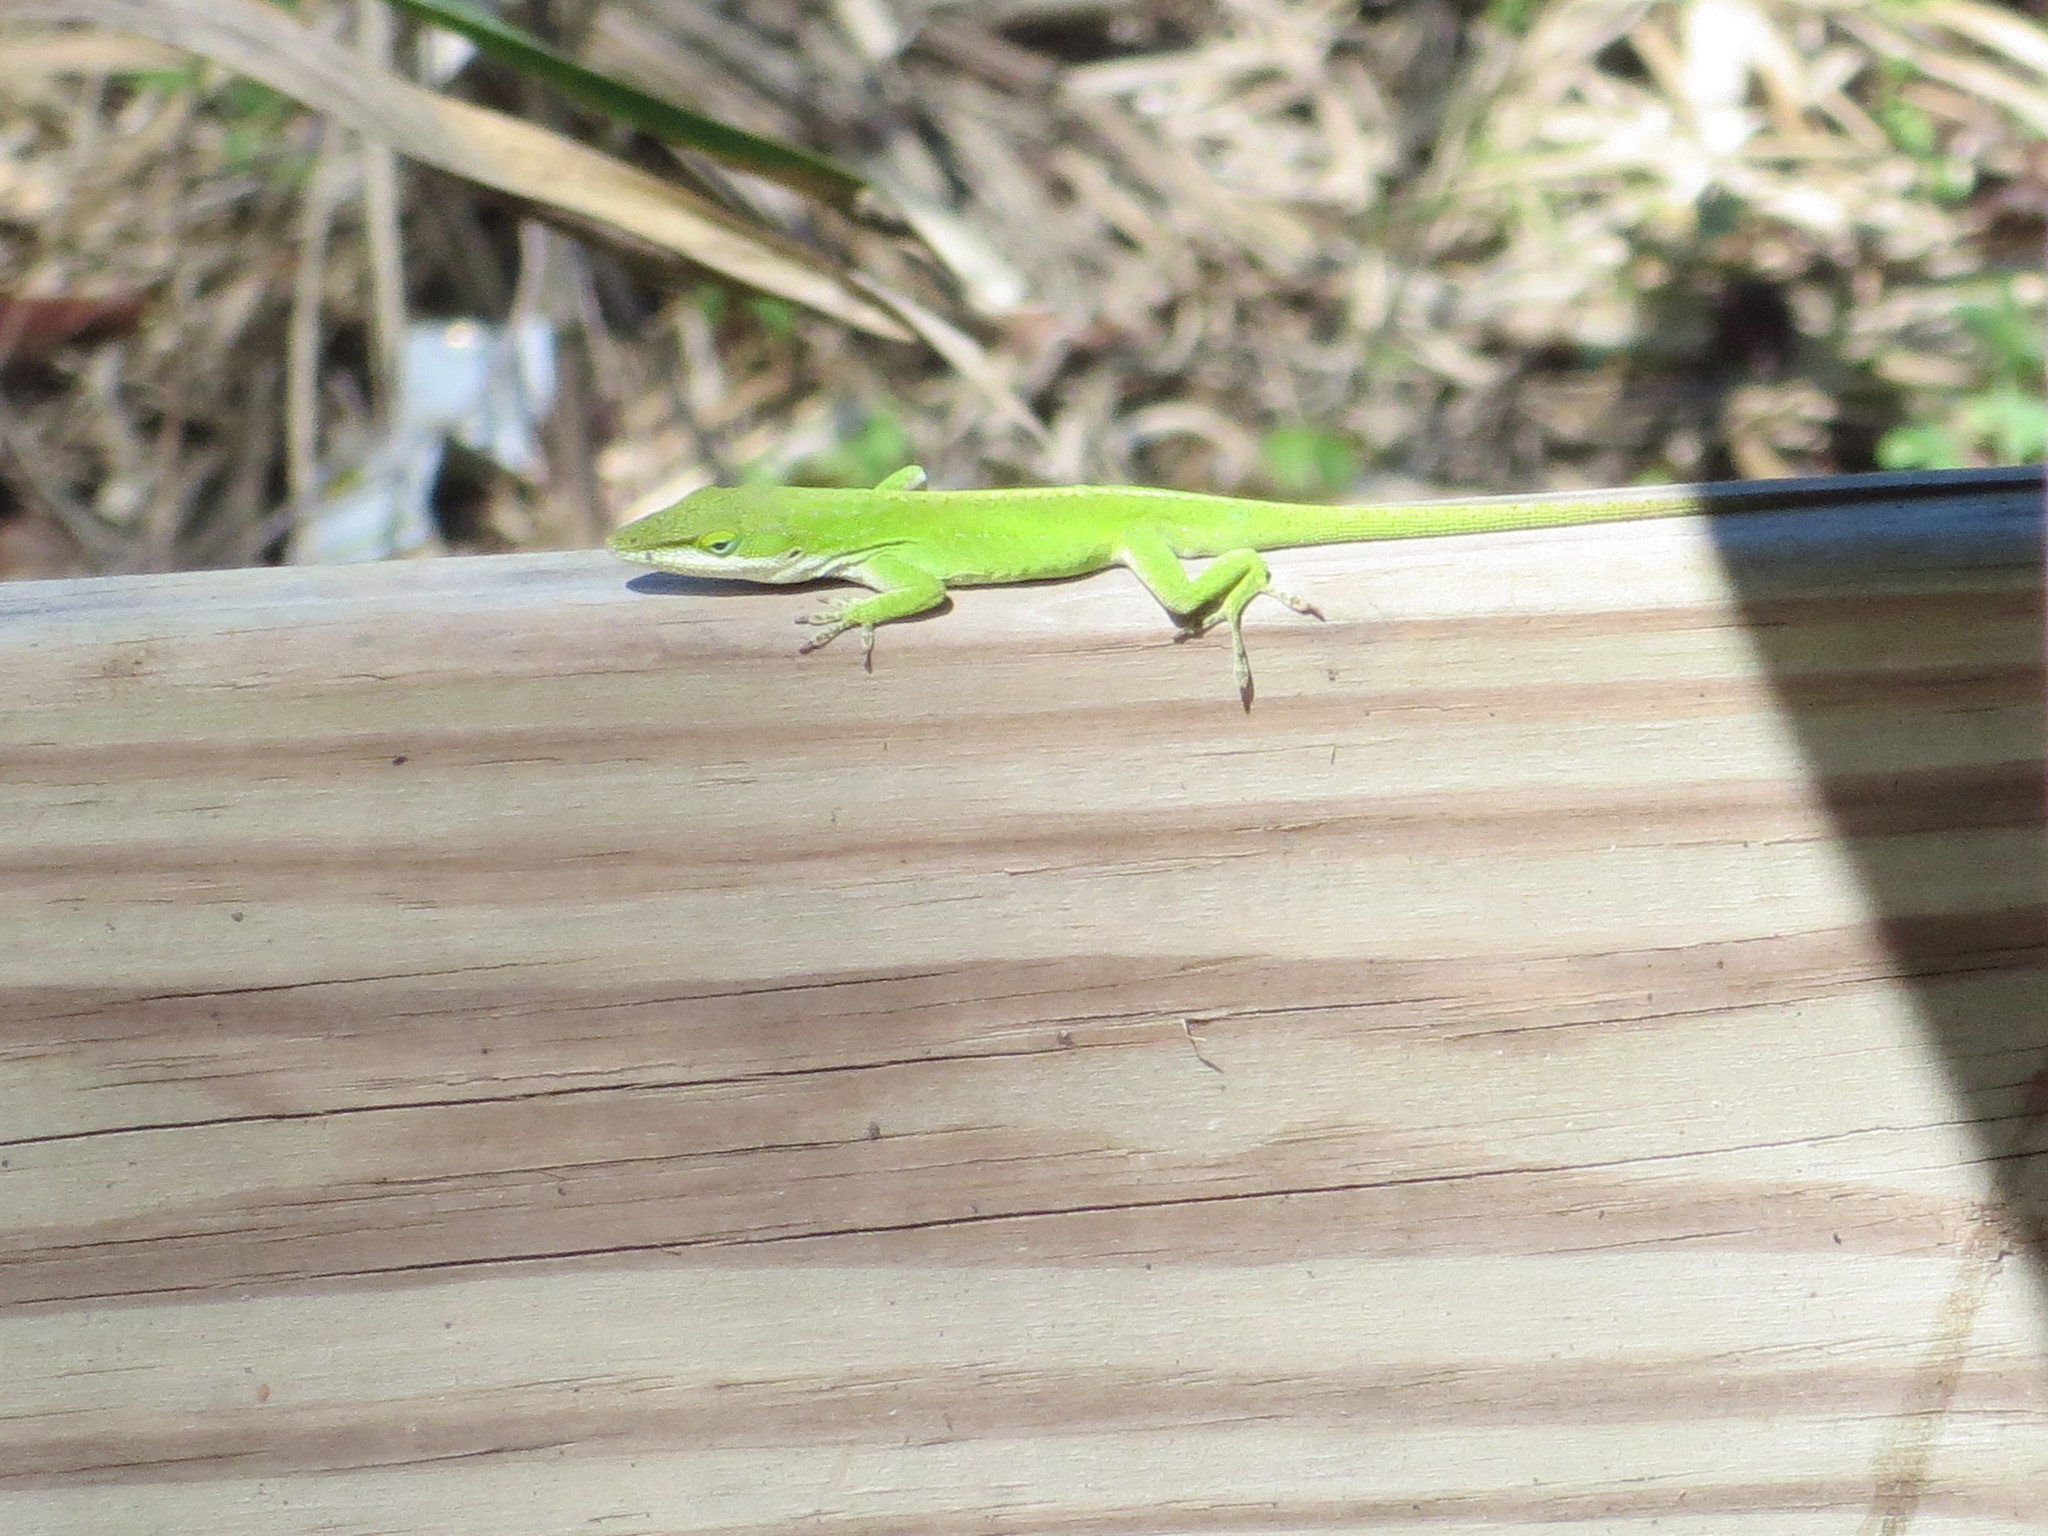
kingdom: Animalia
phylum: Chordata
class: Squamata
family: Dactyloidae
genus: Anolis
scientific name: Anolis carolinensis
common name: Green anole
